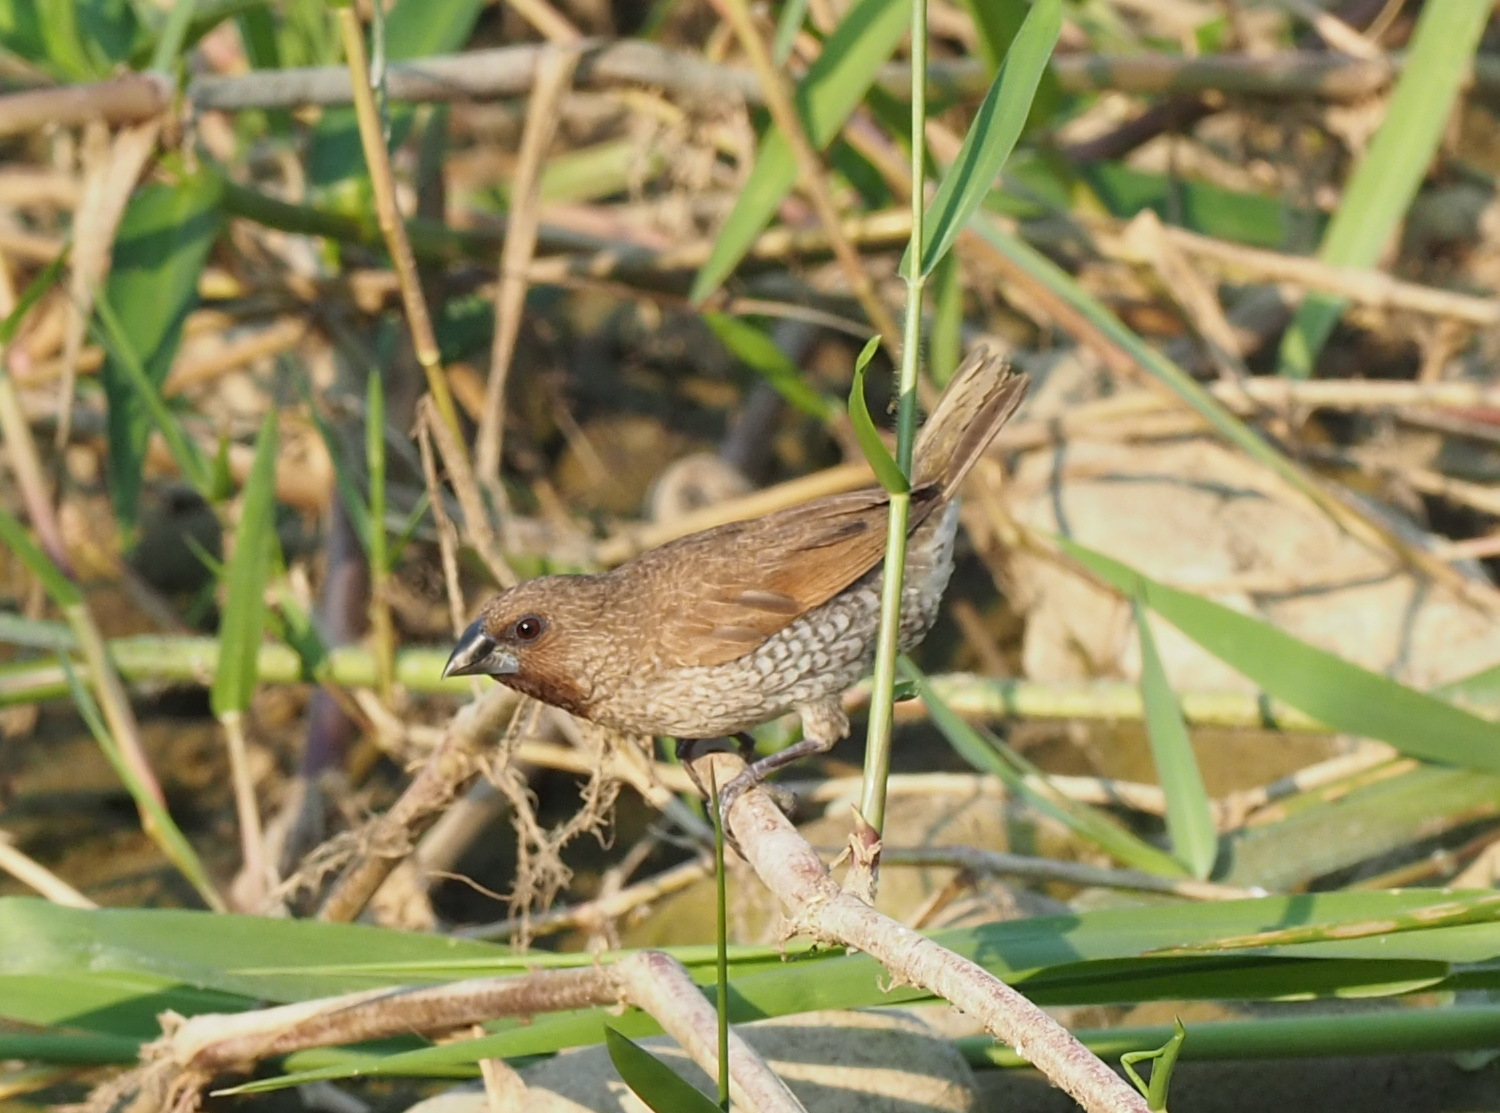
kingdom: Animalia
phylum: Chordata
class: Aves
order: Passeriformes
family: Estrildidae
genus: Lonchura
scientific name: Lonchura punctulata
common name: Scaly-breasted munia
